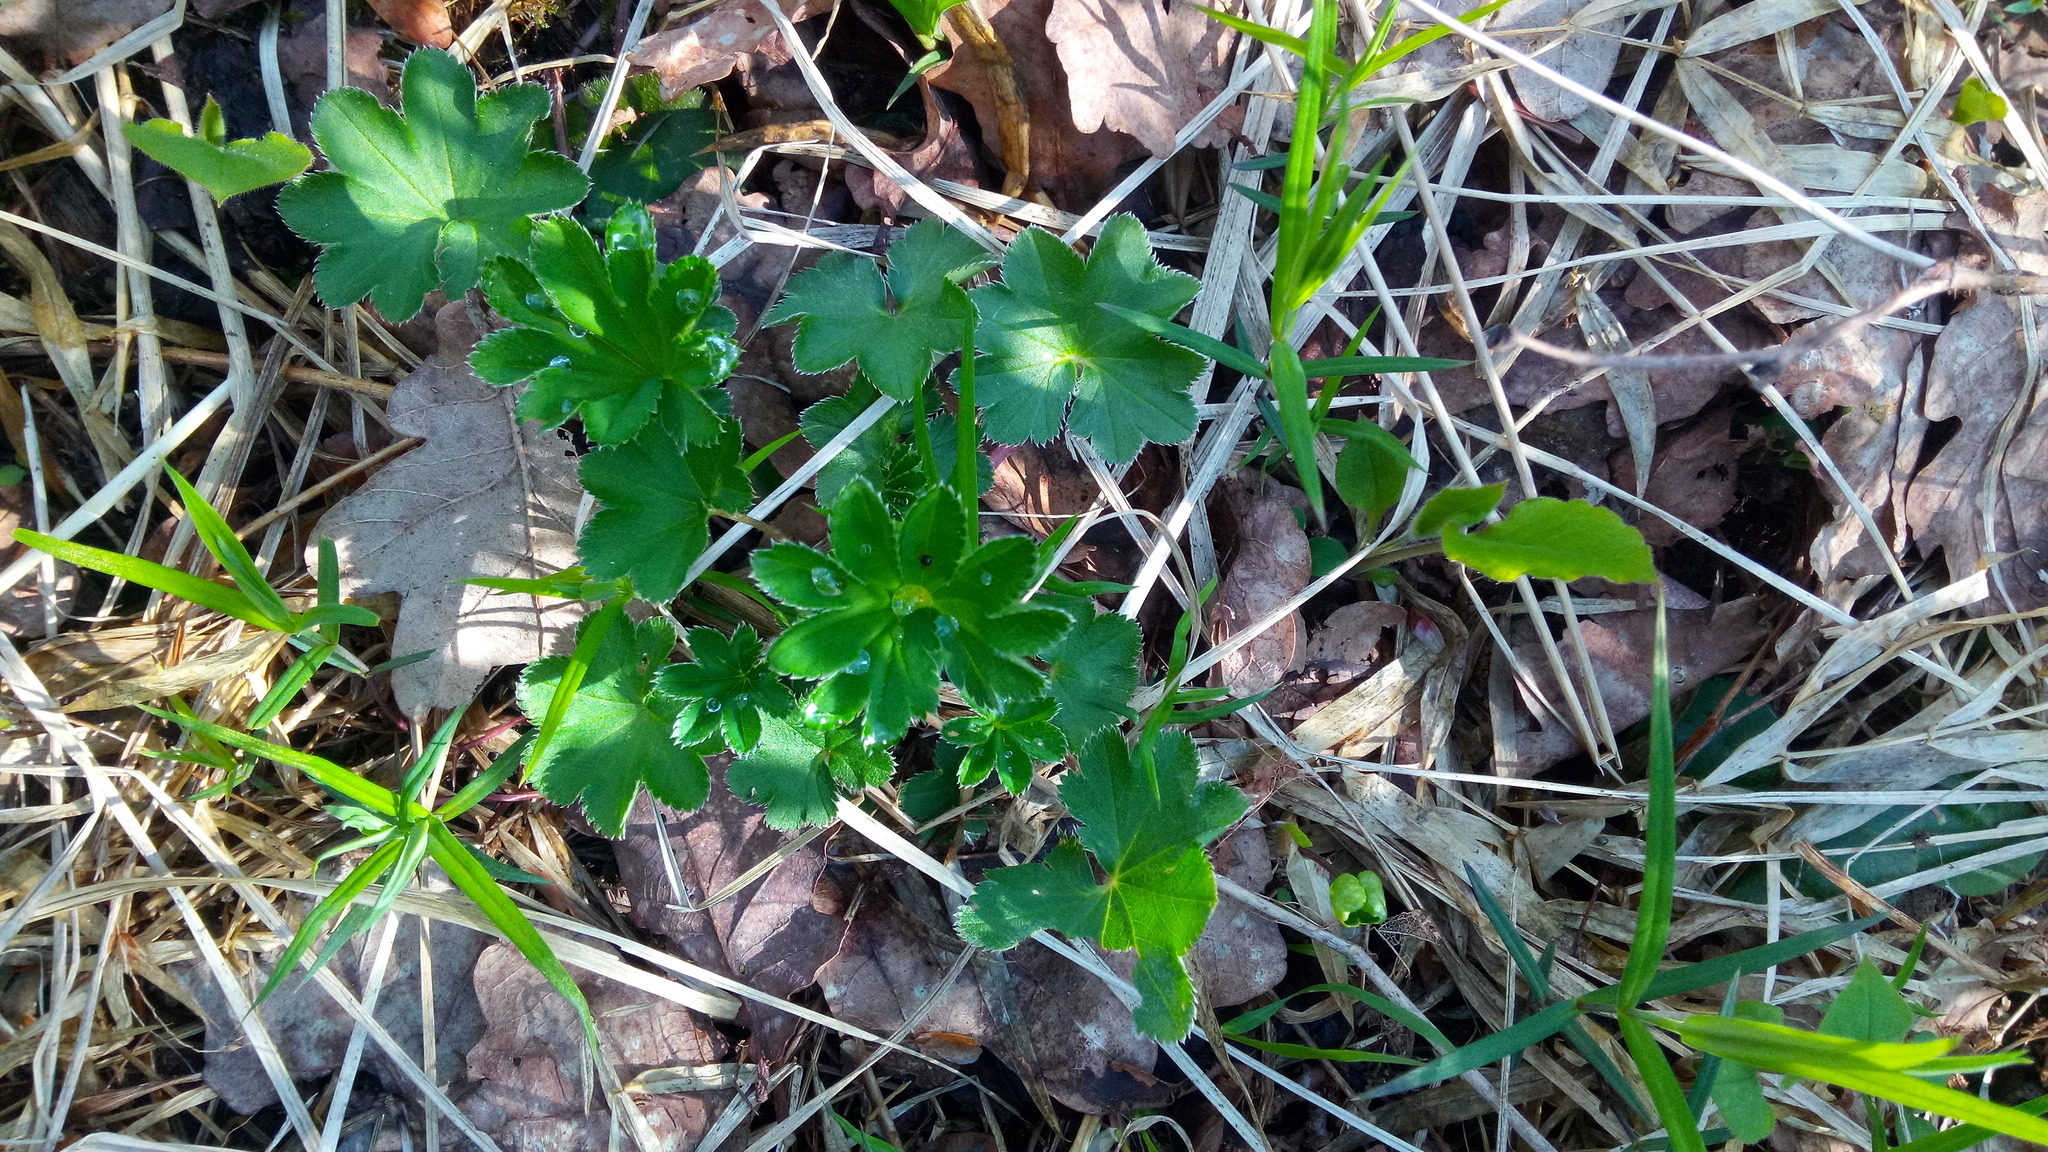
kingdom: Plantae
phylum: Tracheophyta
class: Magnoliopsida
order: Rosales
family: Rosaceae
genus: Alchemilla
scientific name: Alchemilla
